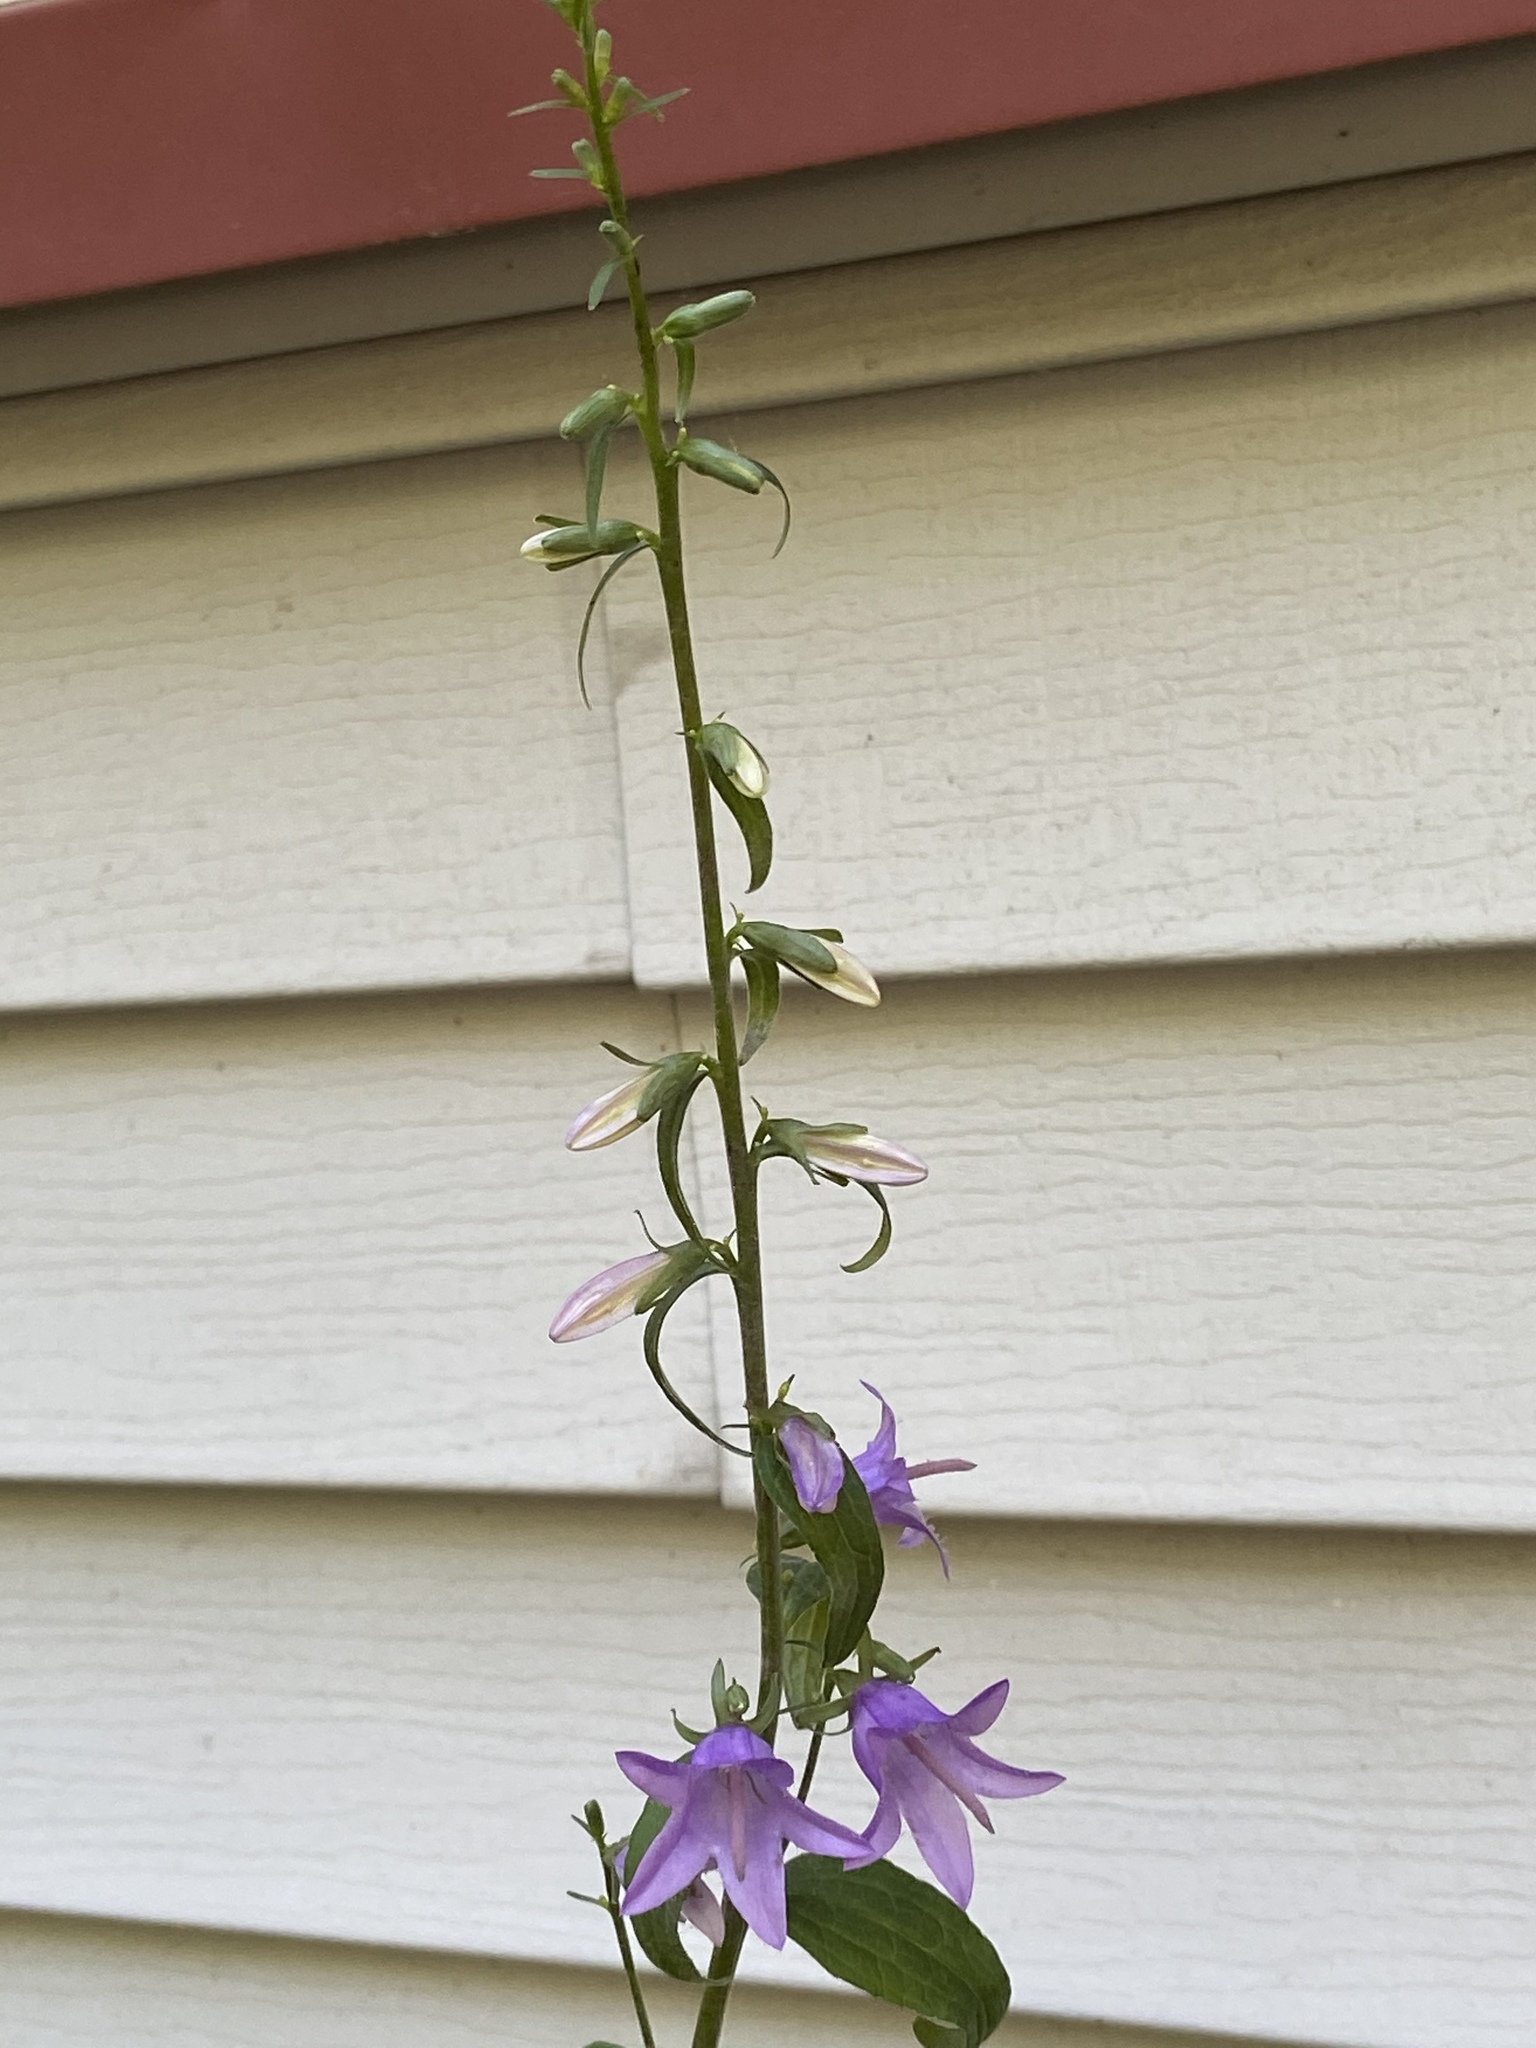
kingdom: Plantae
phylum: Tracheophyta
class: Magnoliopsida
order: Asterales
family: Campanulaceae
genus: Campanula
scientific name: Campanula rapunculoides
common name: Creeping bellflower
